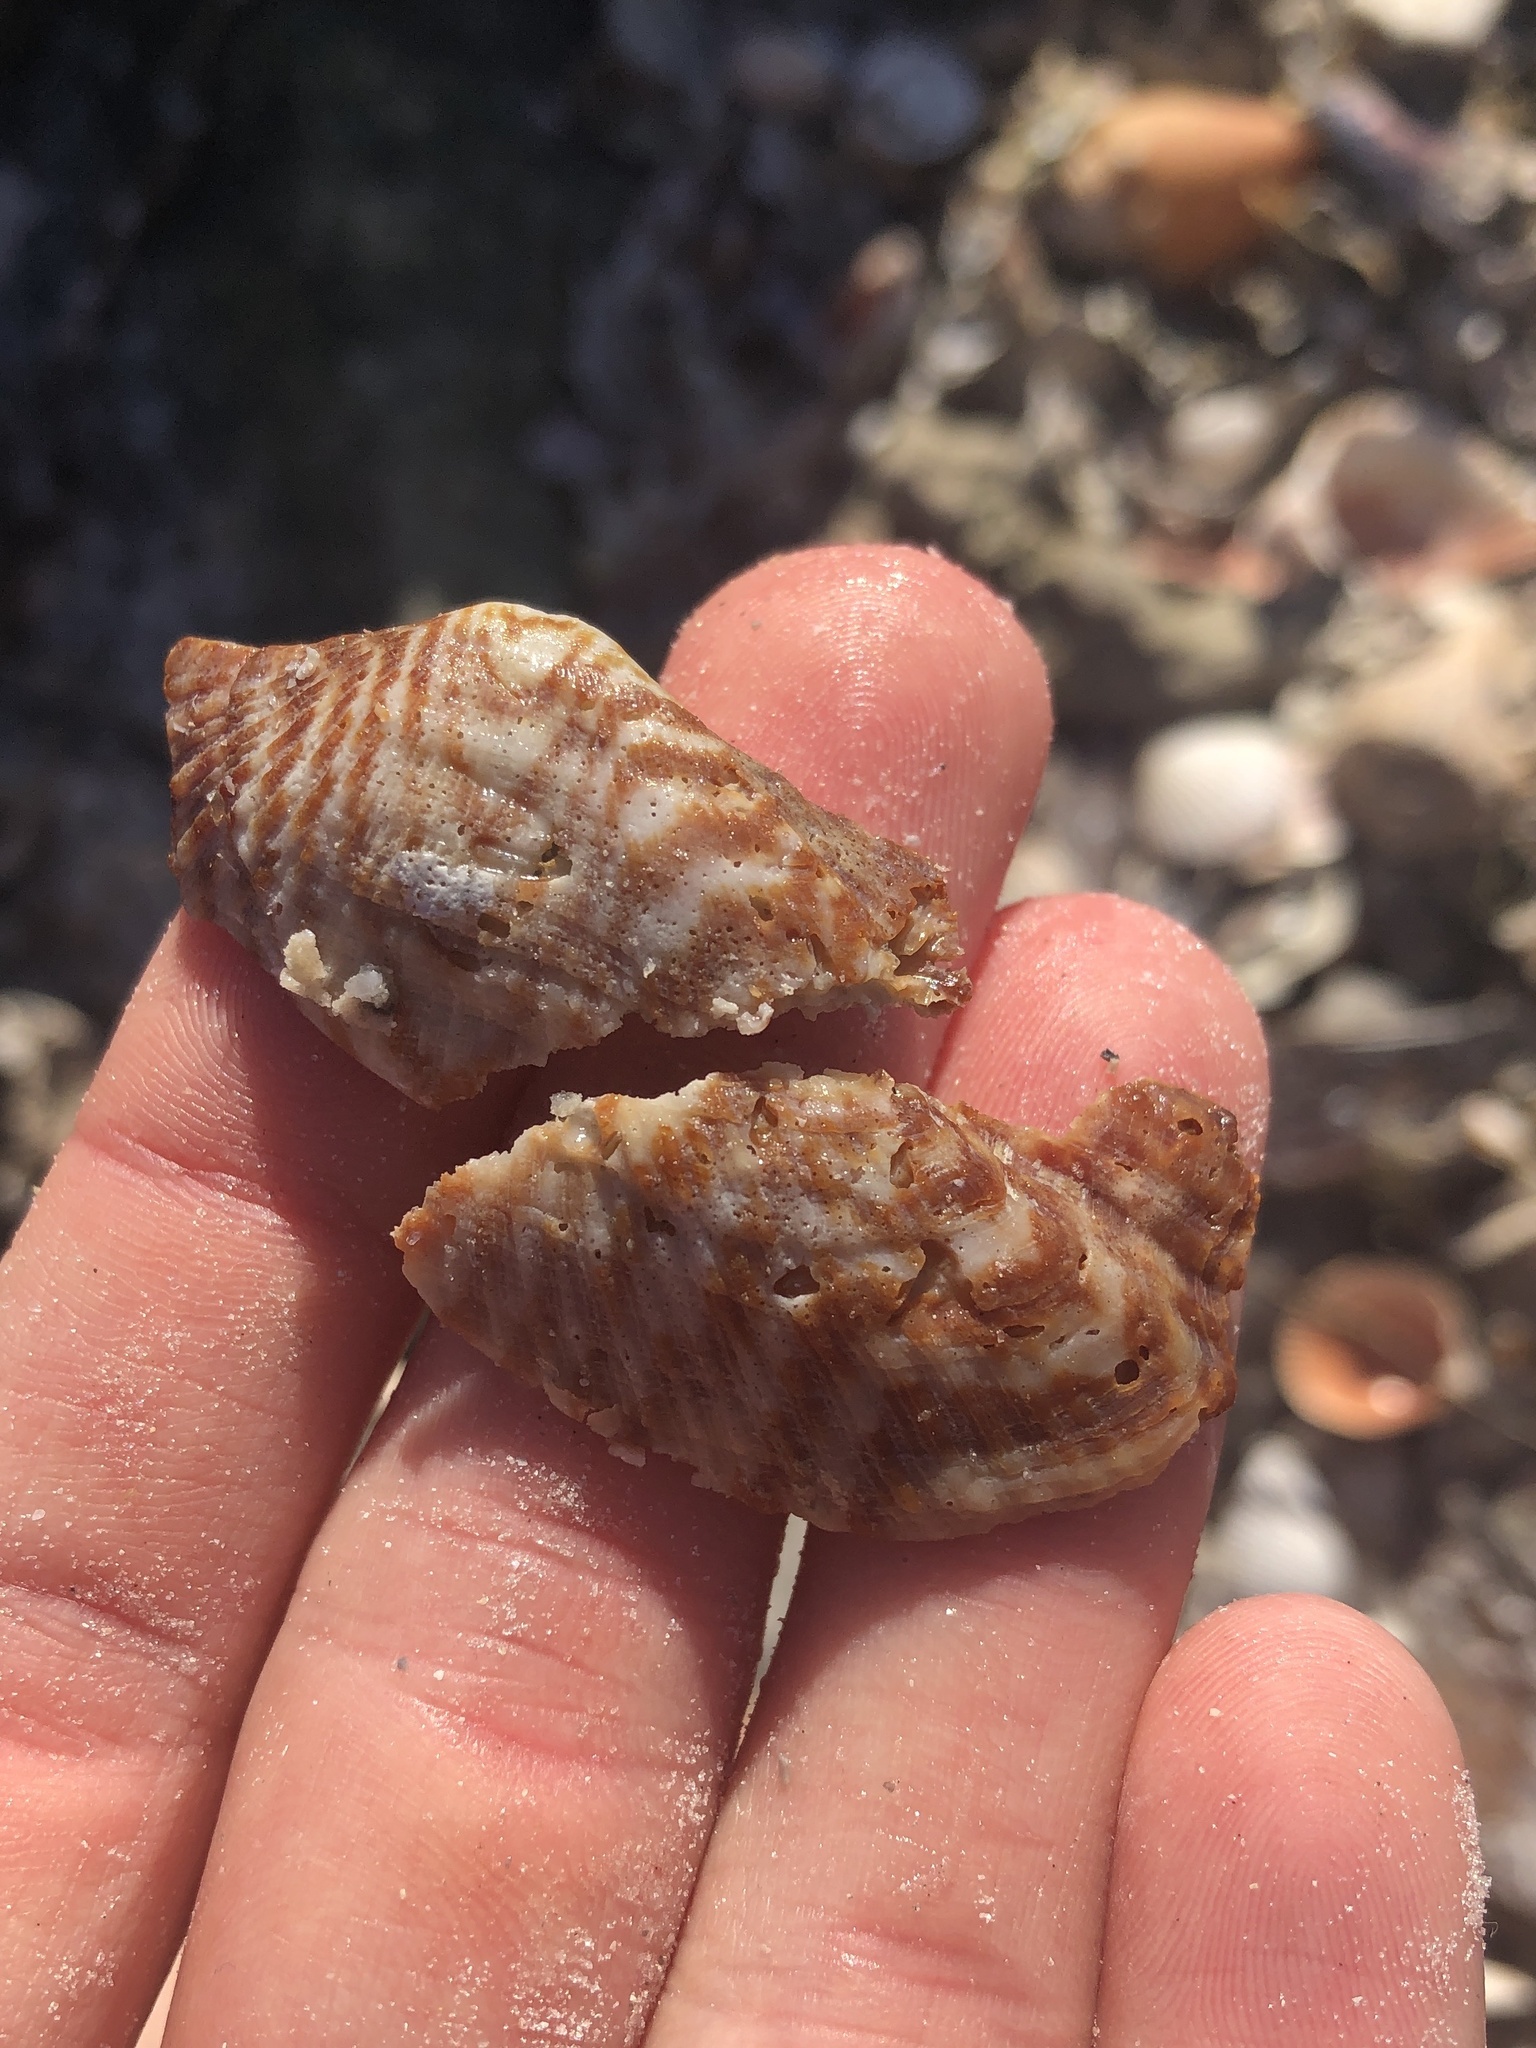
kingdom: Animalia
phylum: Mollusca
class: Bivalvia
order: Arcida
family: Arcidae
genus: Arca
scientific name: Arca zebra
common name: Atlantic turkey wing
